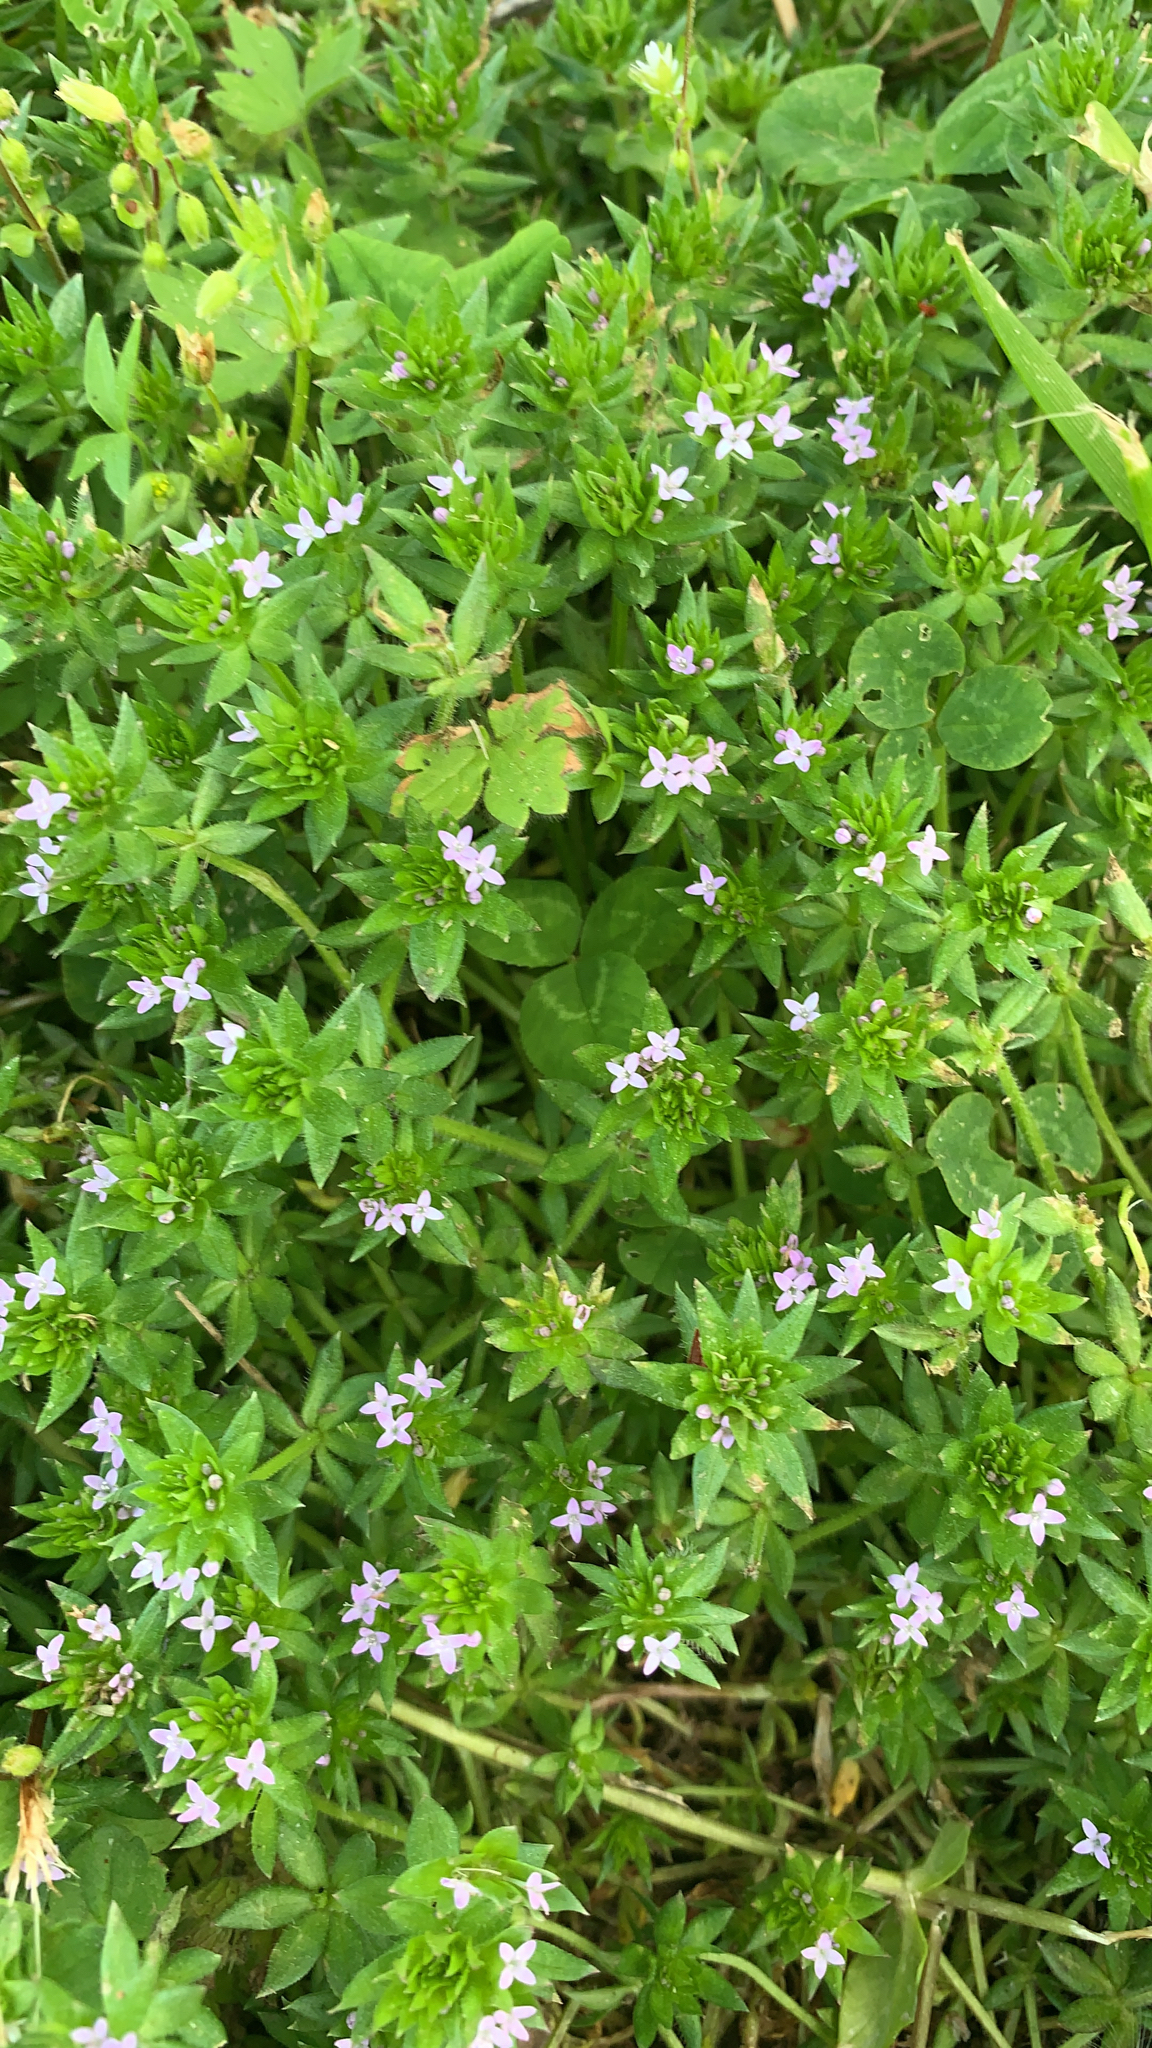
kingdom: Plantae
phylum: Tracheophyta
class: Magnoliopsida
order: Gentianales
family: Rubiaceae
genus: Sherardia
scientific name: Sherardia arvensis
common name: Field madder
